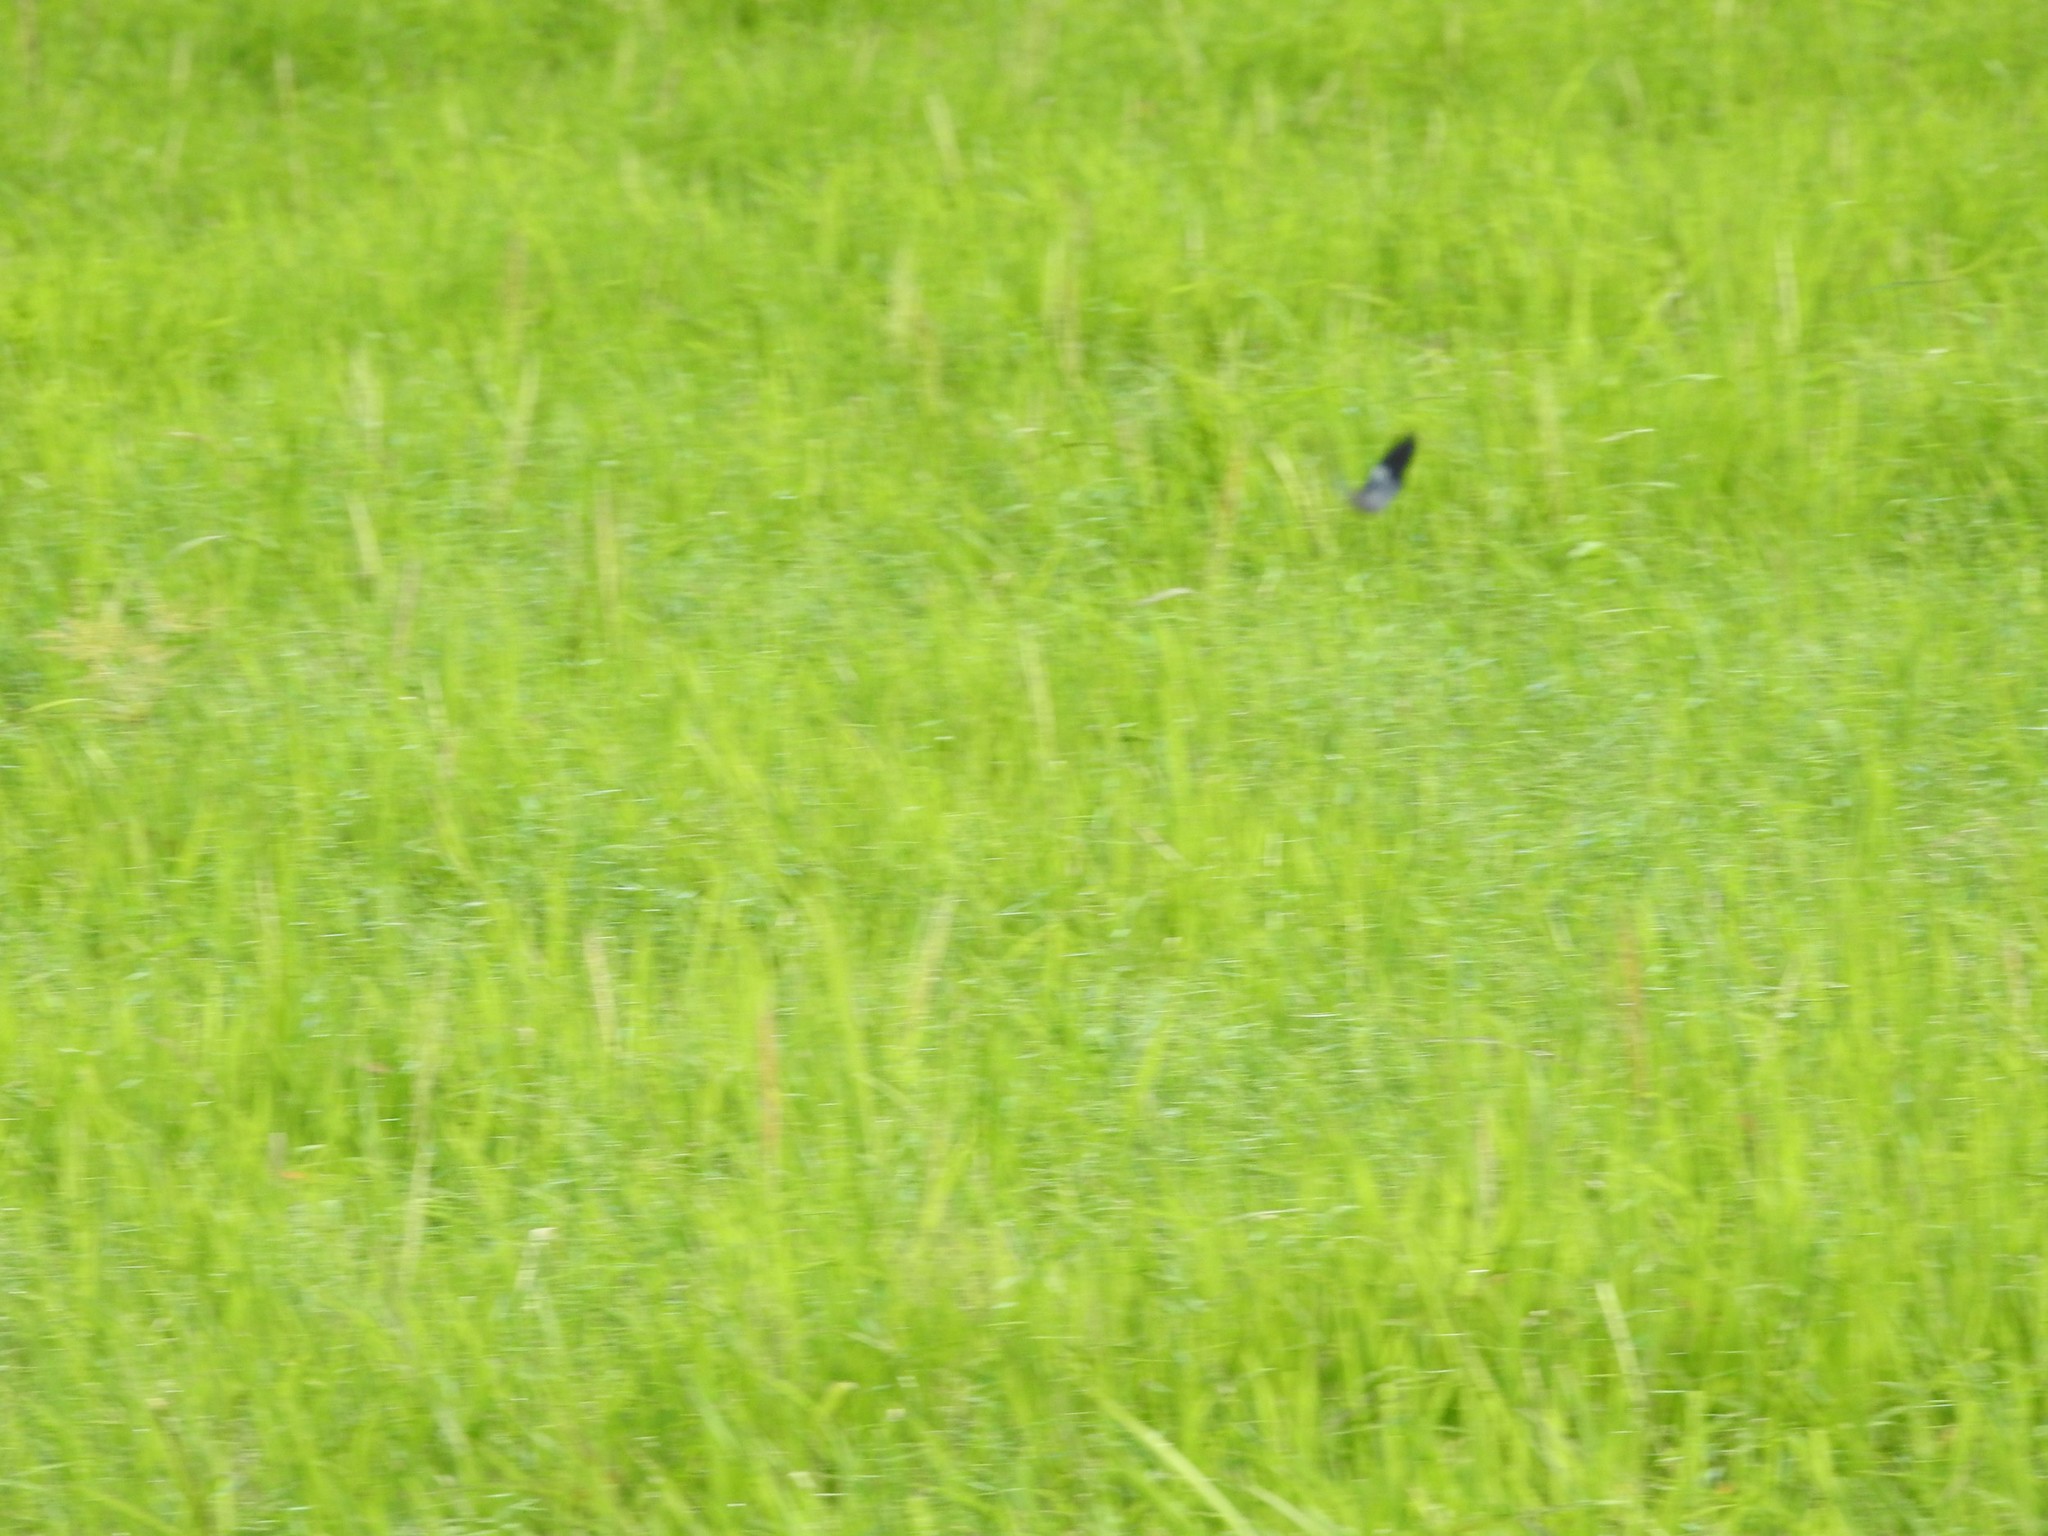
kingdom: Animalia
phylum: Arthropoda
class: Insecta
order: Lepidoptera
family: Geometridae
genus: Dysphania
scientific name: Dysphania percota
